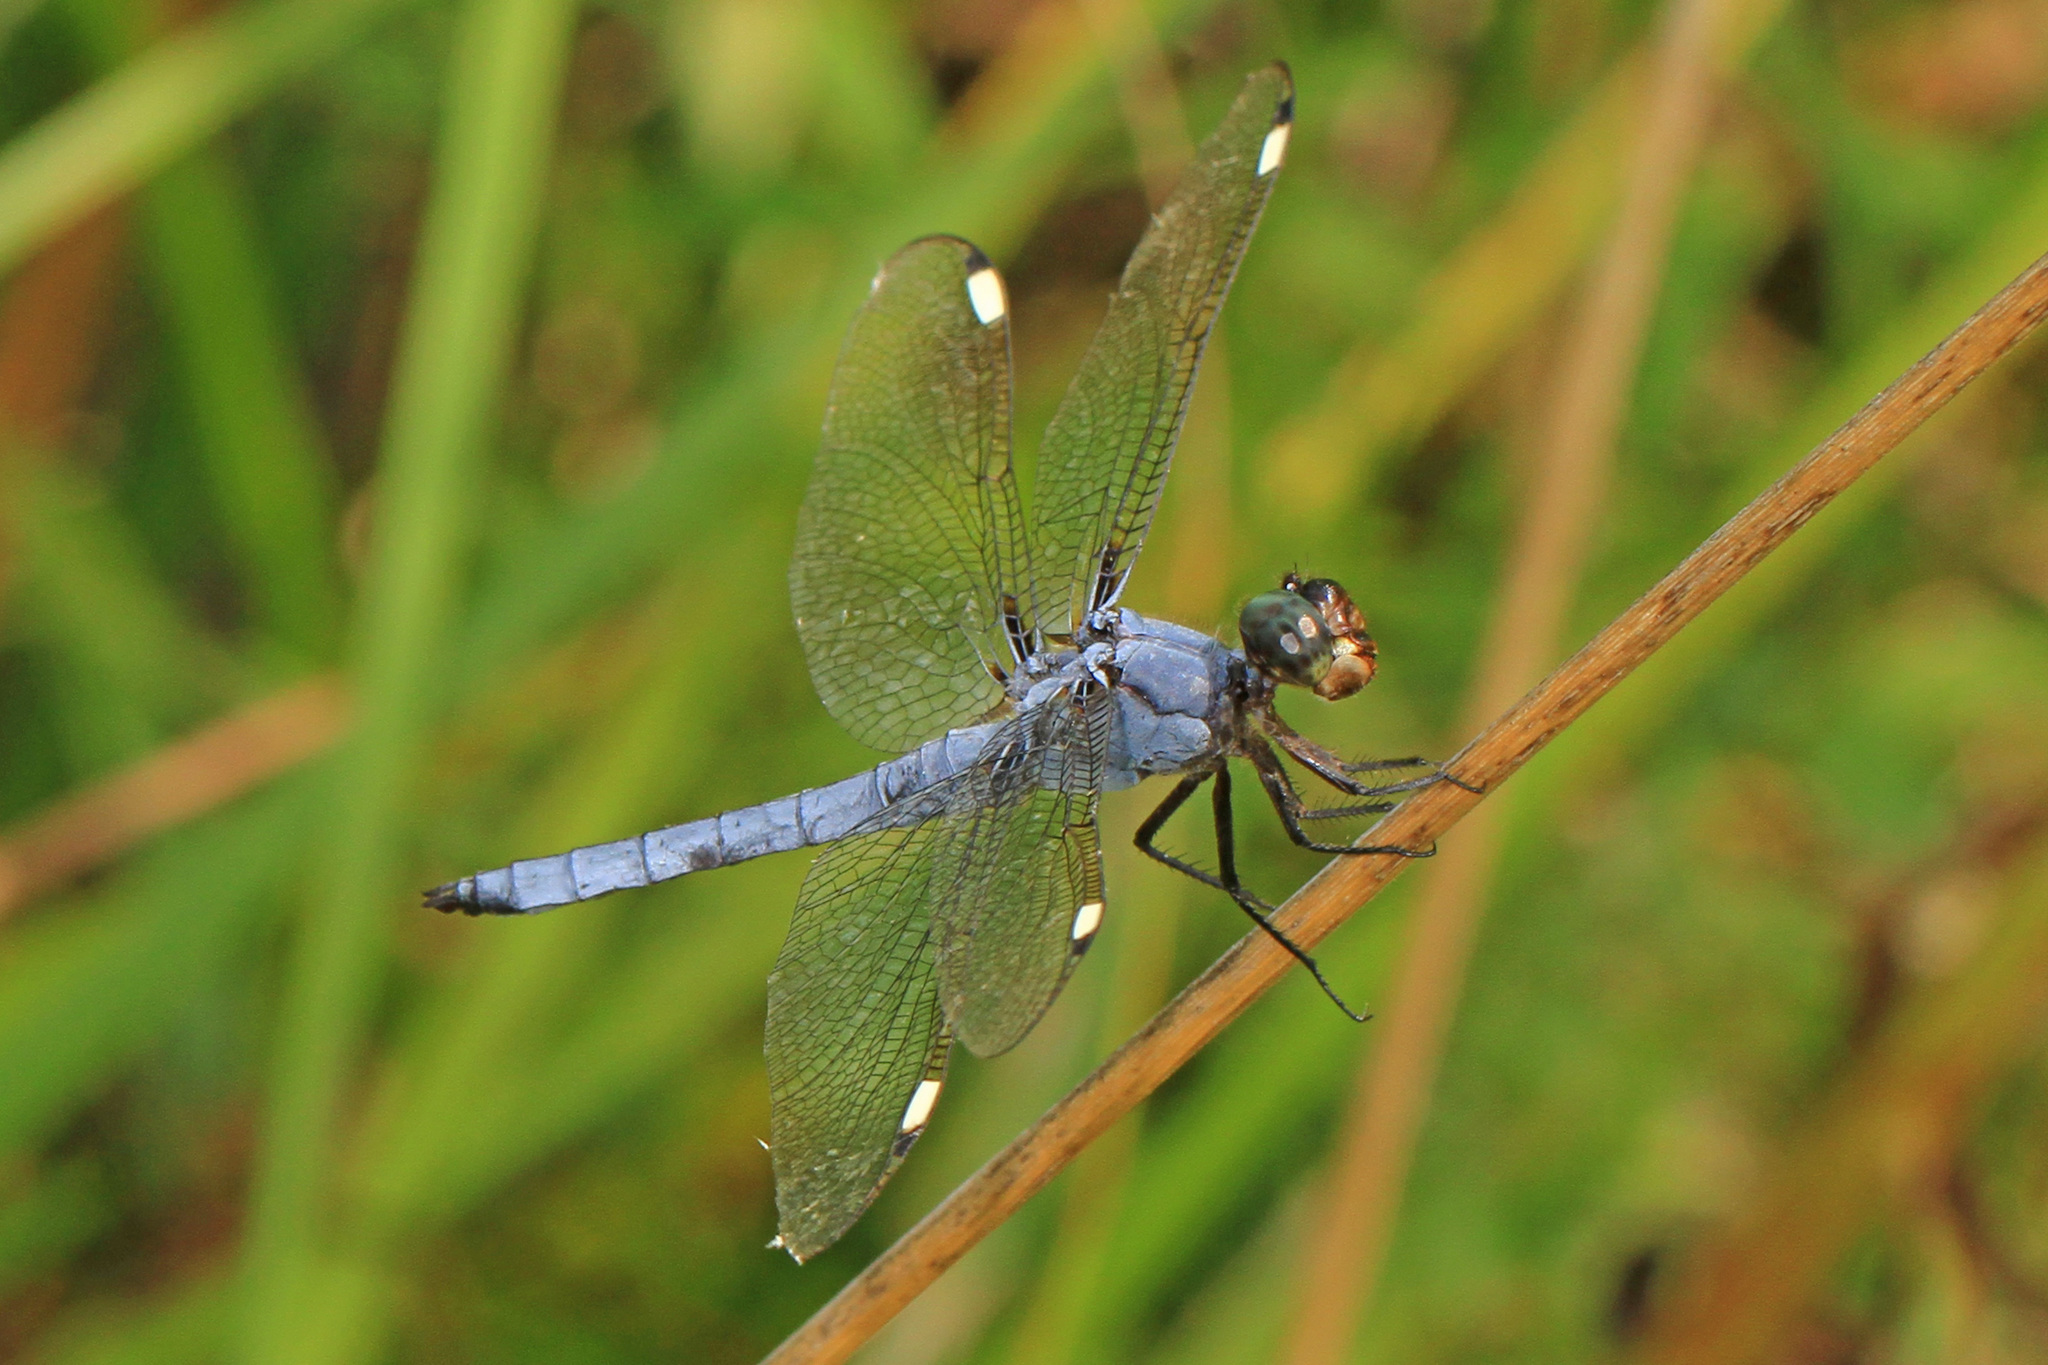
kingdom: Animalia
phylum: Arthropoda
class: Insecta
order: Odonata
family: Libellulidae
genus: Libellula
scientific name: Libellula cyanea
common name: Spangled skimmer
